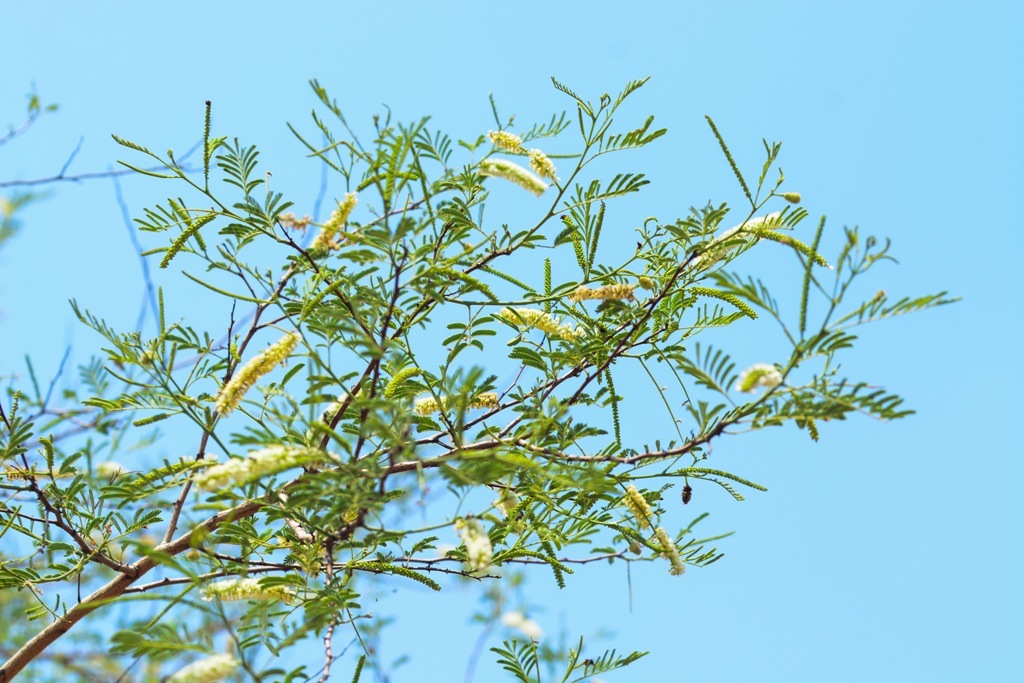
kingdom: Plantae
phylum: Tracheophyta
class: Magnoliopsida
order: Fabales
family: Fabaceae
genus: Senegalia
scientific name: Senegalia chundra
